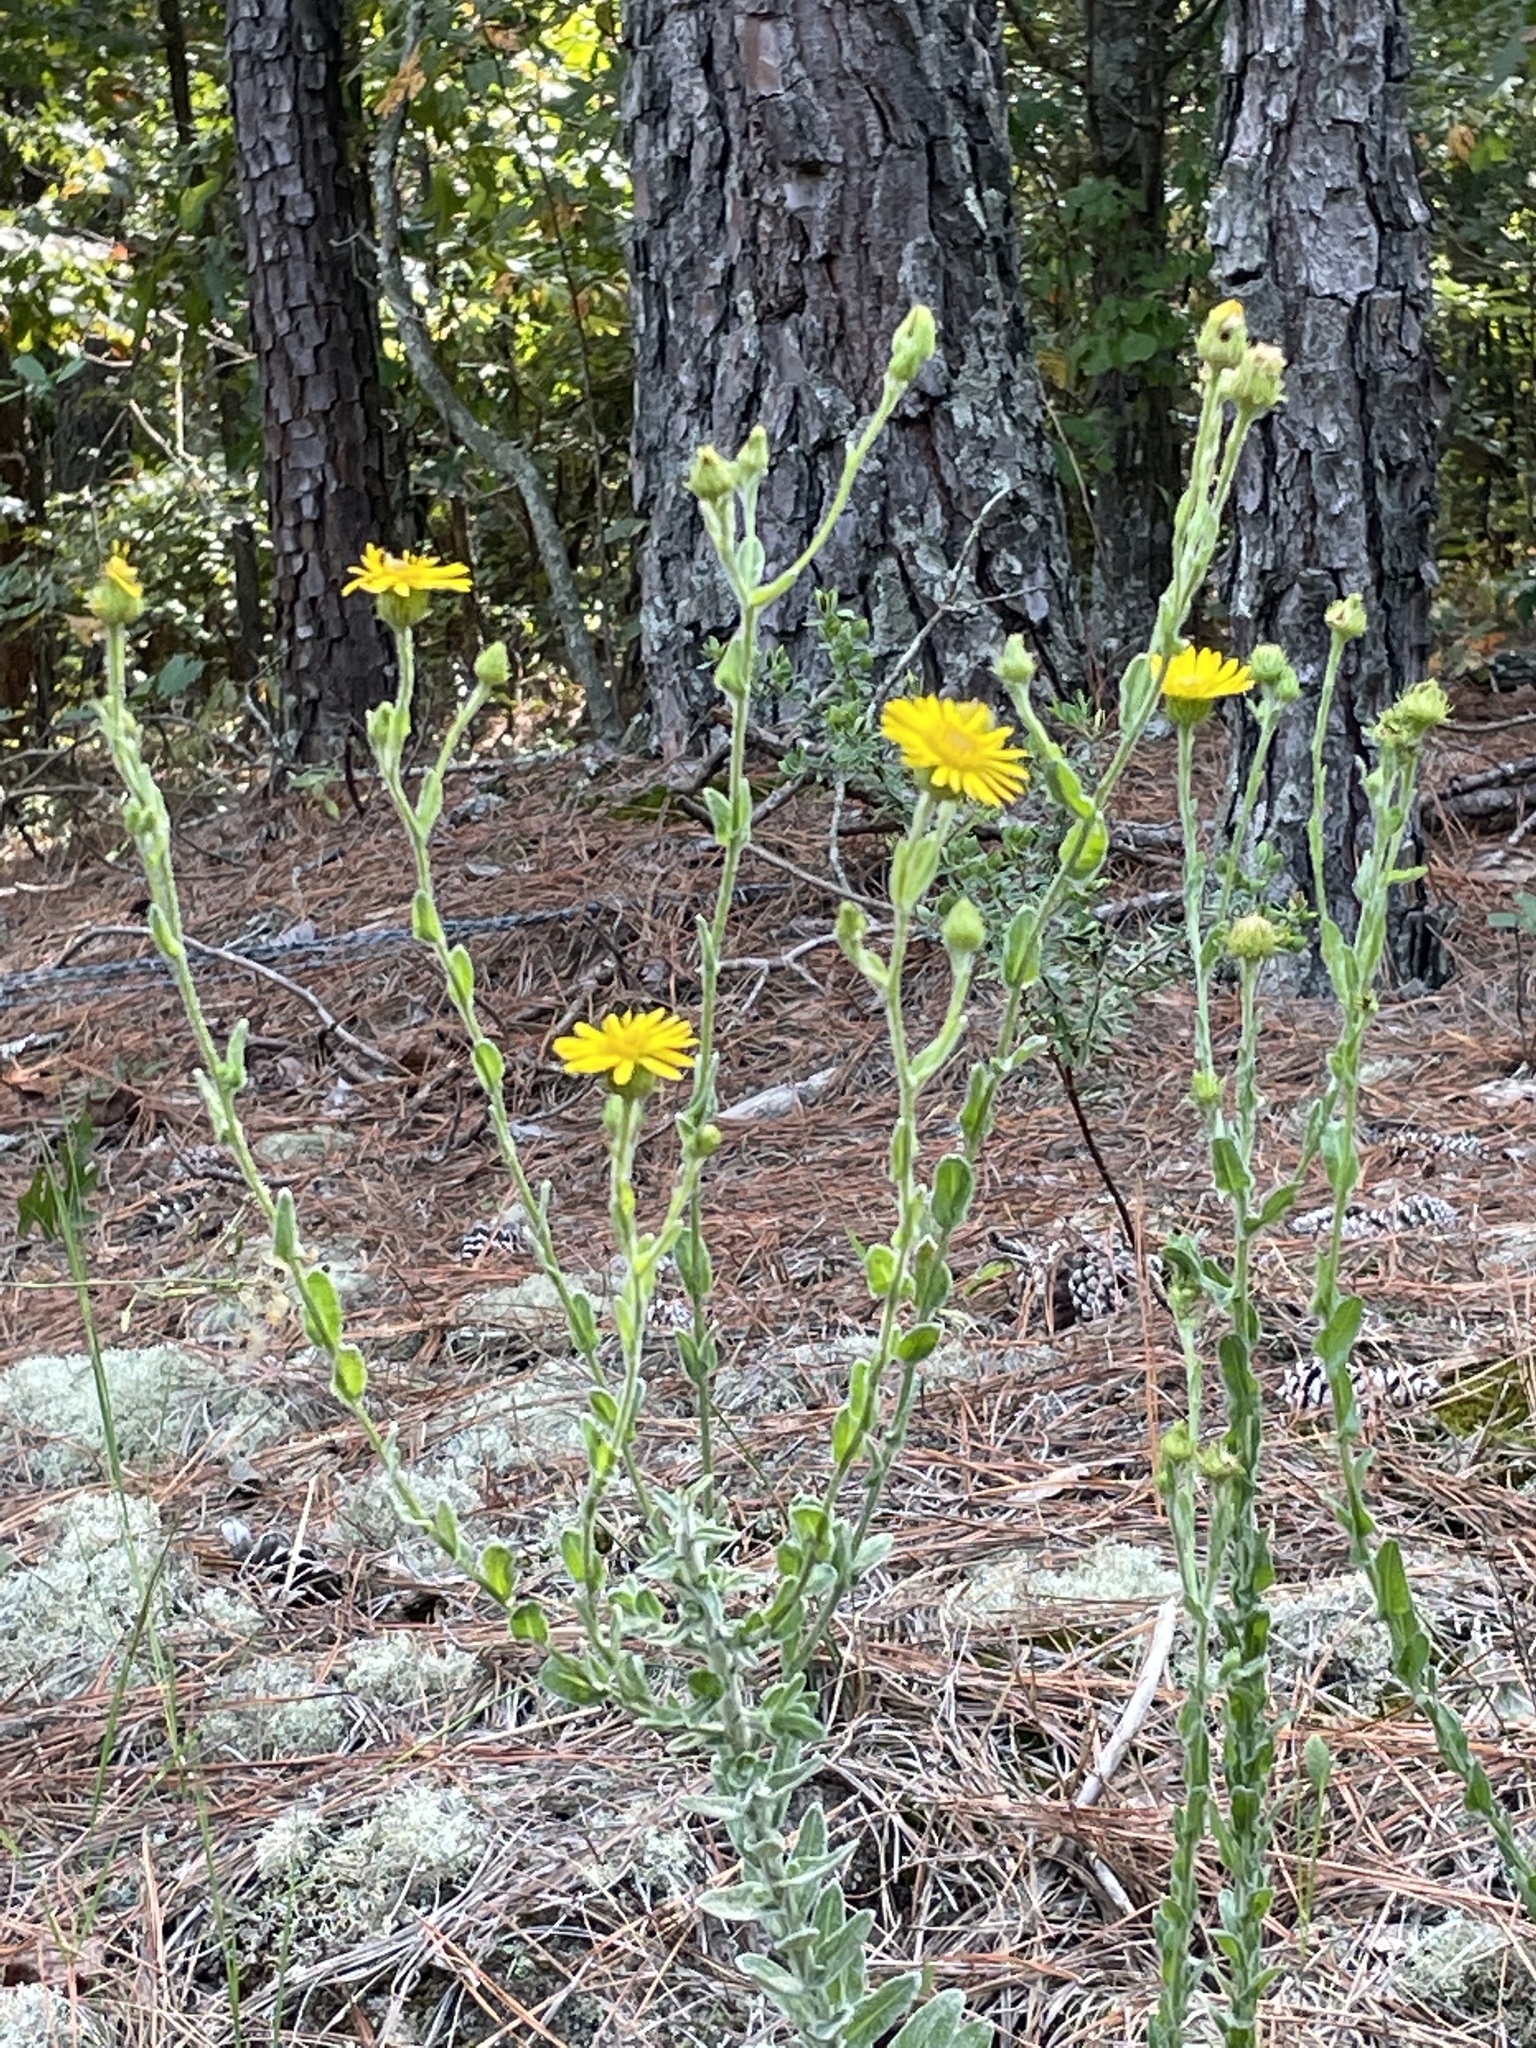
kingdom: Plantae
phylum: Tracheophyta
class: Magnoliopsida
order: Asterales
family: Asteraceae
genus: Chrysopsis
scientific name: Chrysopsis gossypina
